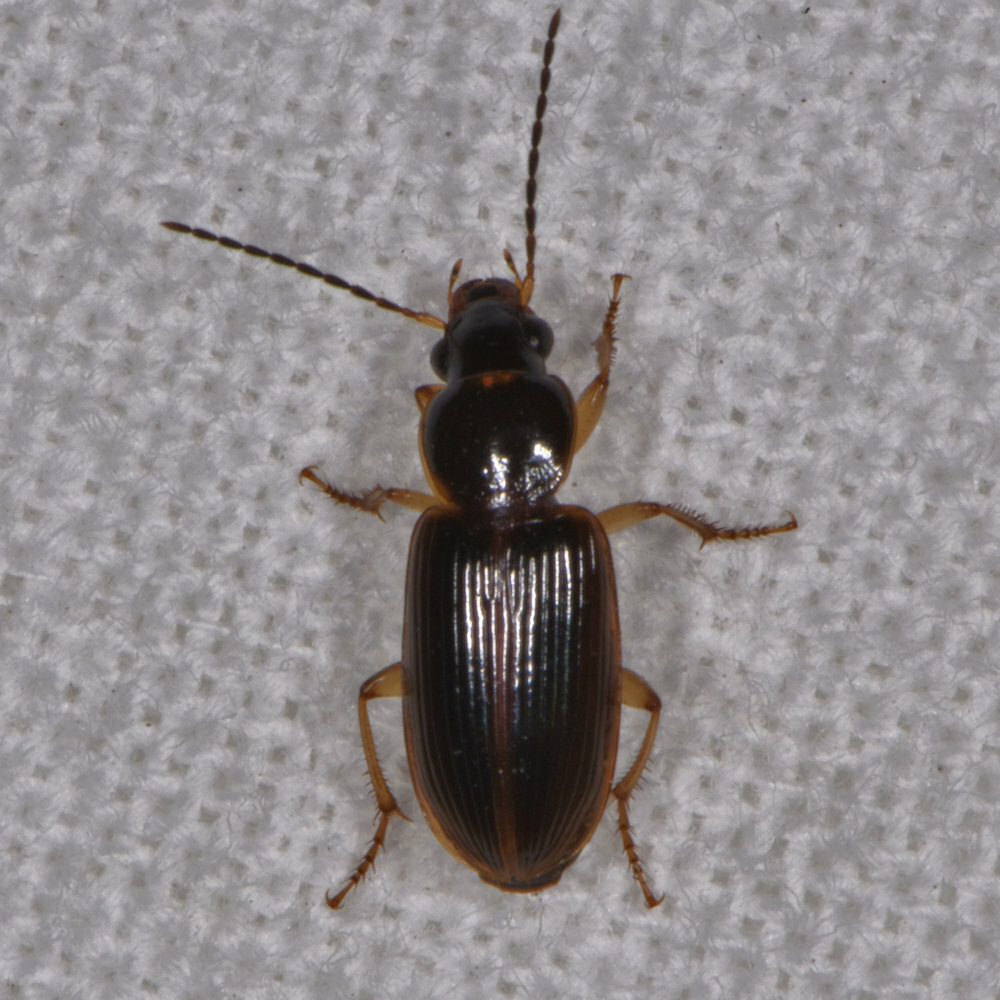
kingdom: Animalia
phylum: Arthropoda
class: Insecta
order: Coleoptera
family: Carabidae
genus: Stenolophus
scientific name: Stenolophus ochropezus
